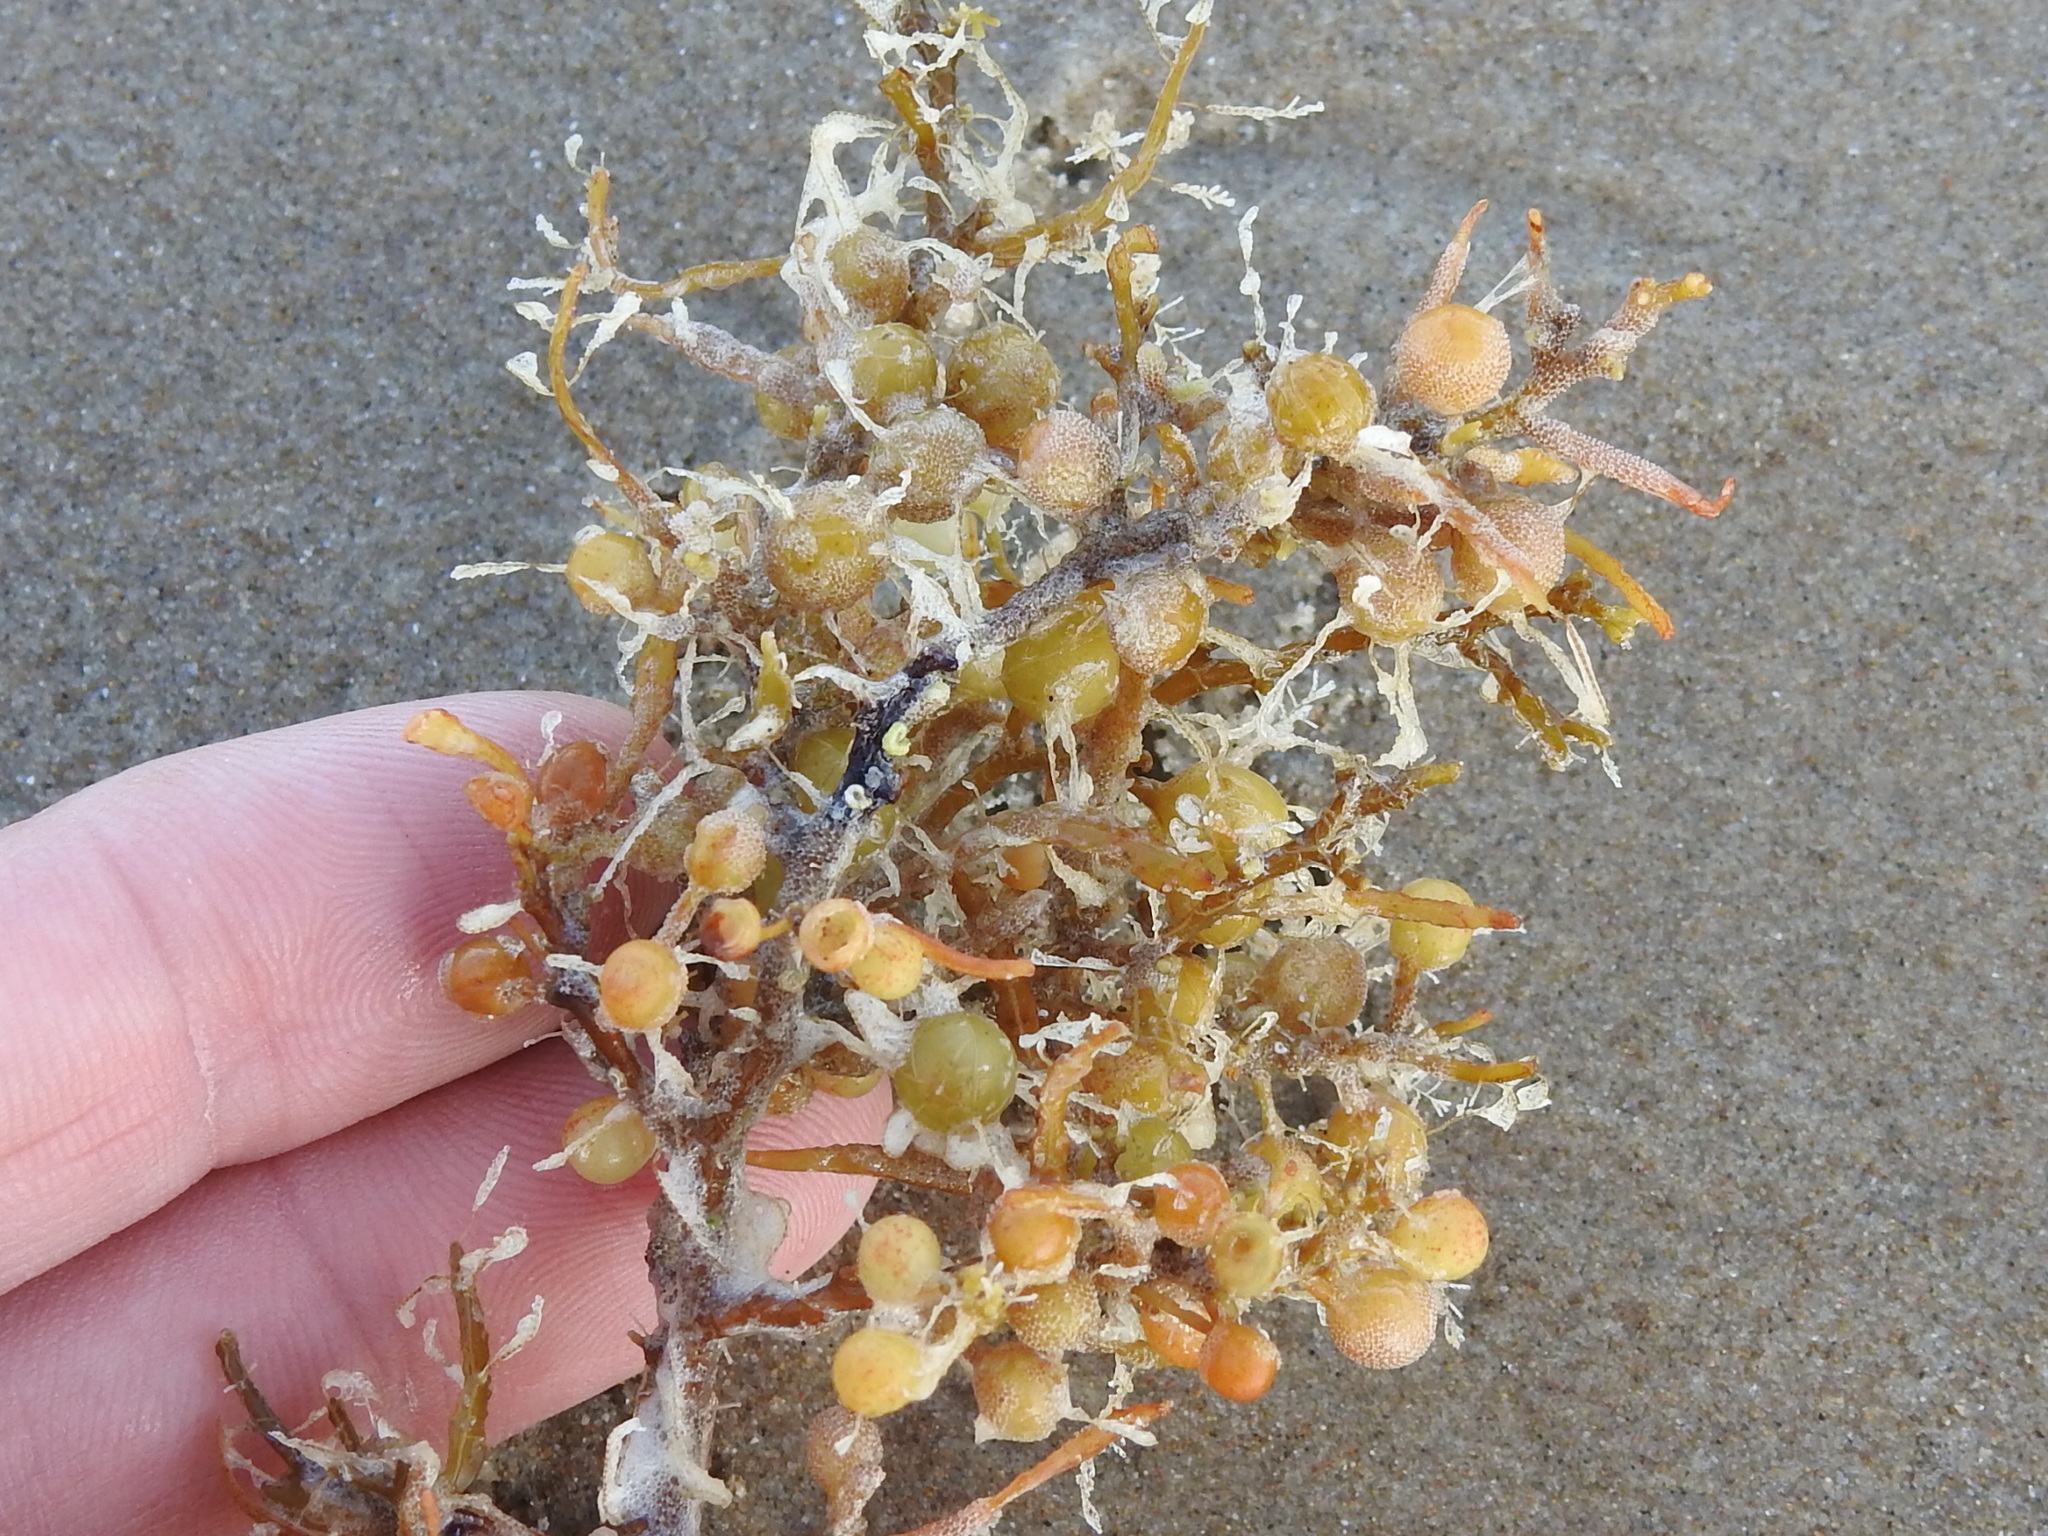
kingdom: Chromista
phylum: Ochrophyta
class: Phaeophyceae
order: Fucales
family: Sargassaceae
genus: Sargassum
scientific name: Sargassum fluitans
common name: Sargassum seaweed
